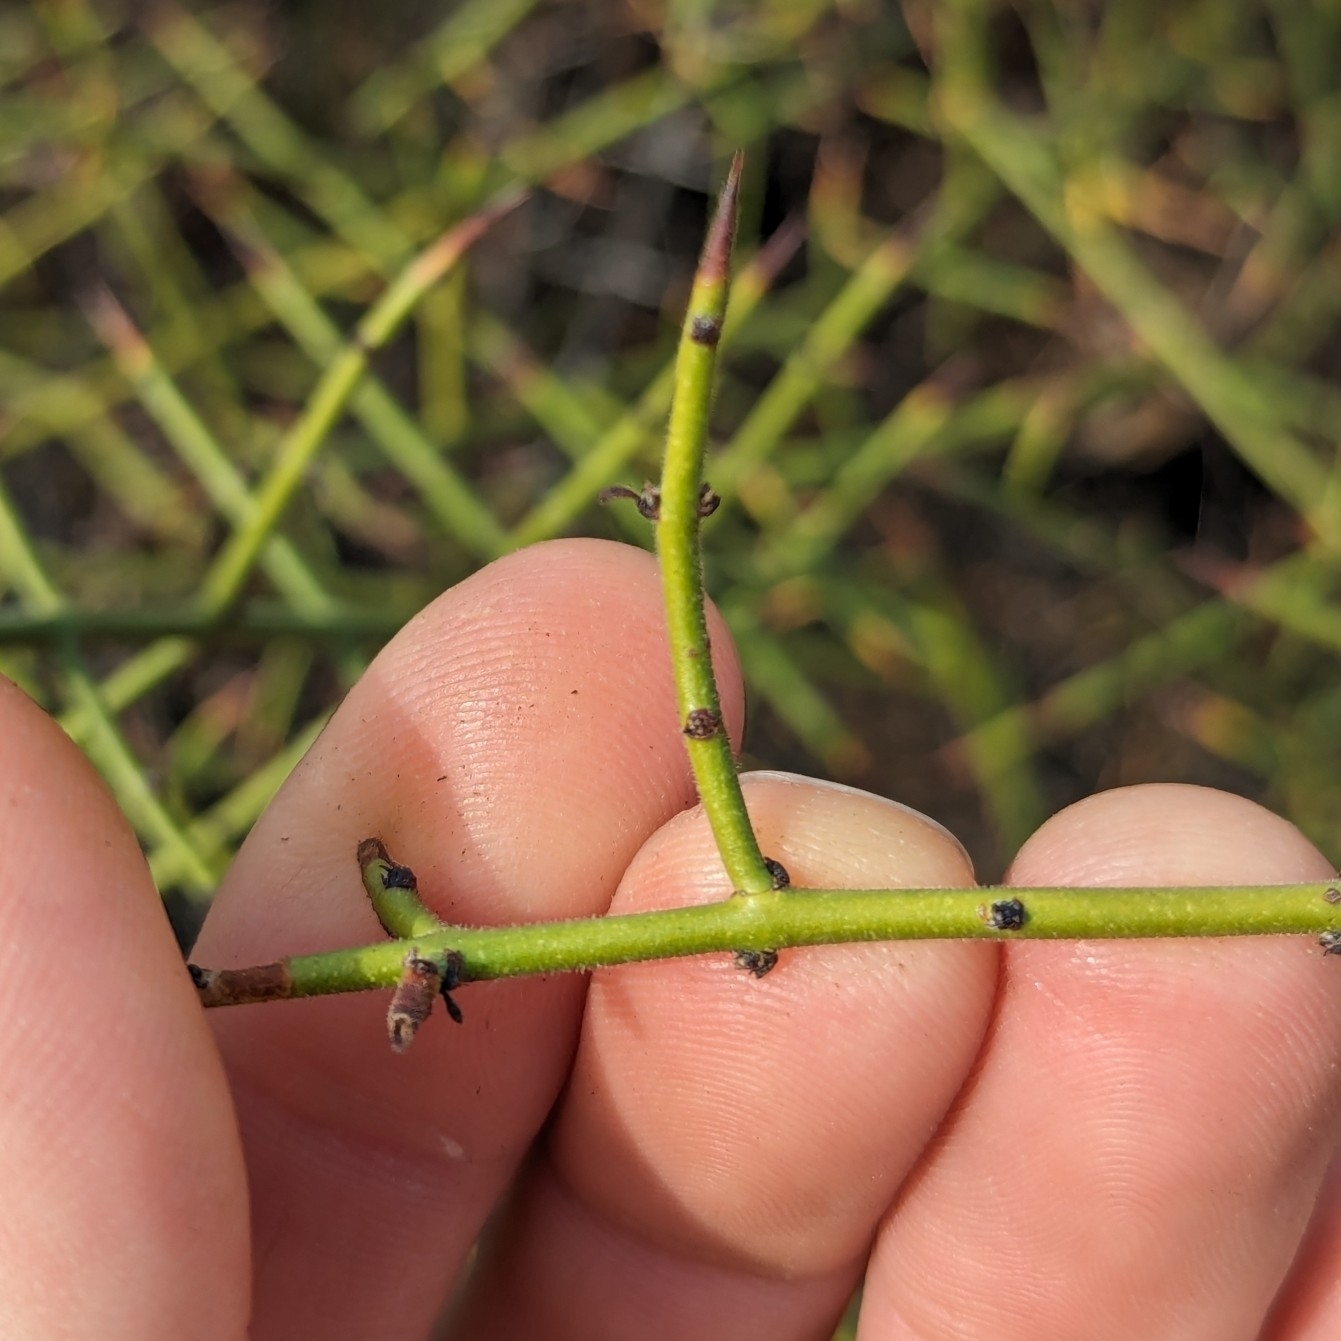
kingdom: Plantae
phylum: Tracheophyta
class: Magnoliopsida
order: Rosales
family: Rhamnaceae
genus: Adolphia
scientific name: Adolphia californica
